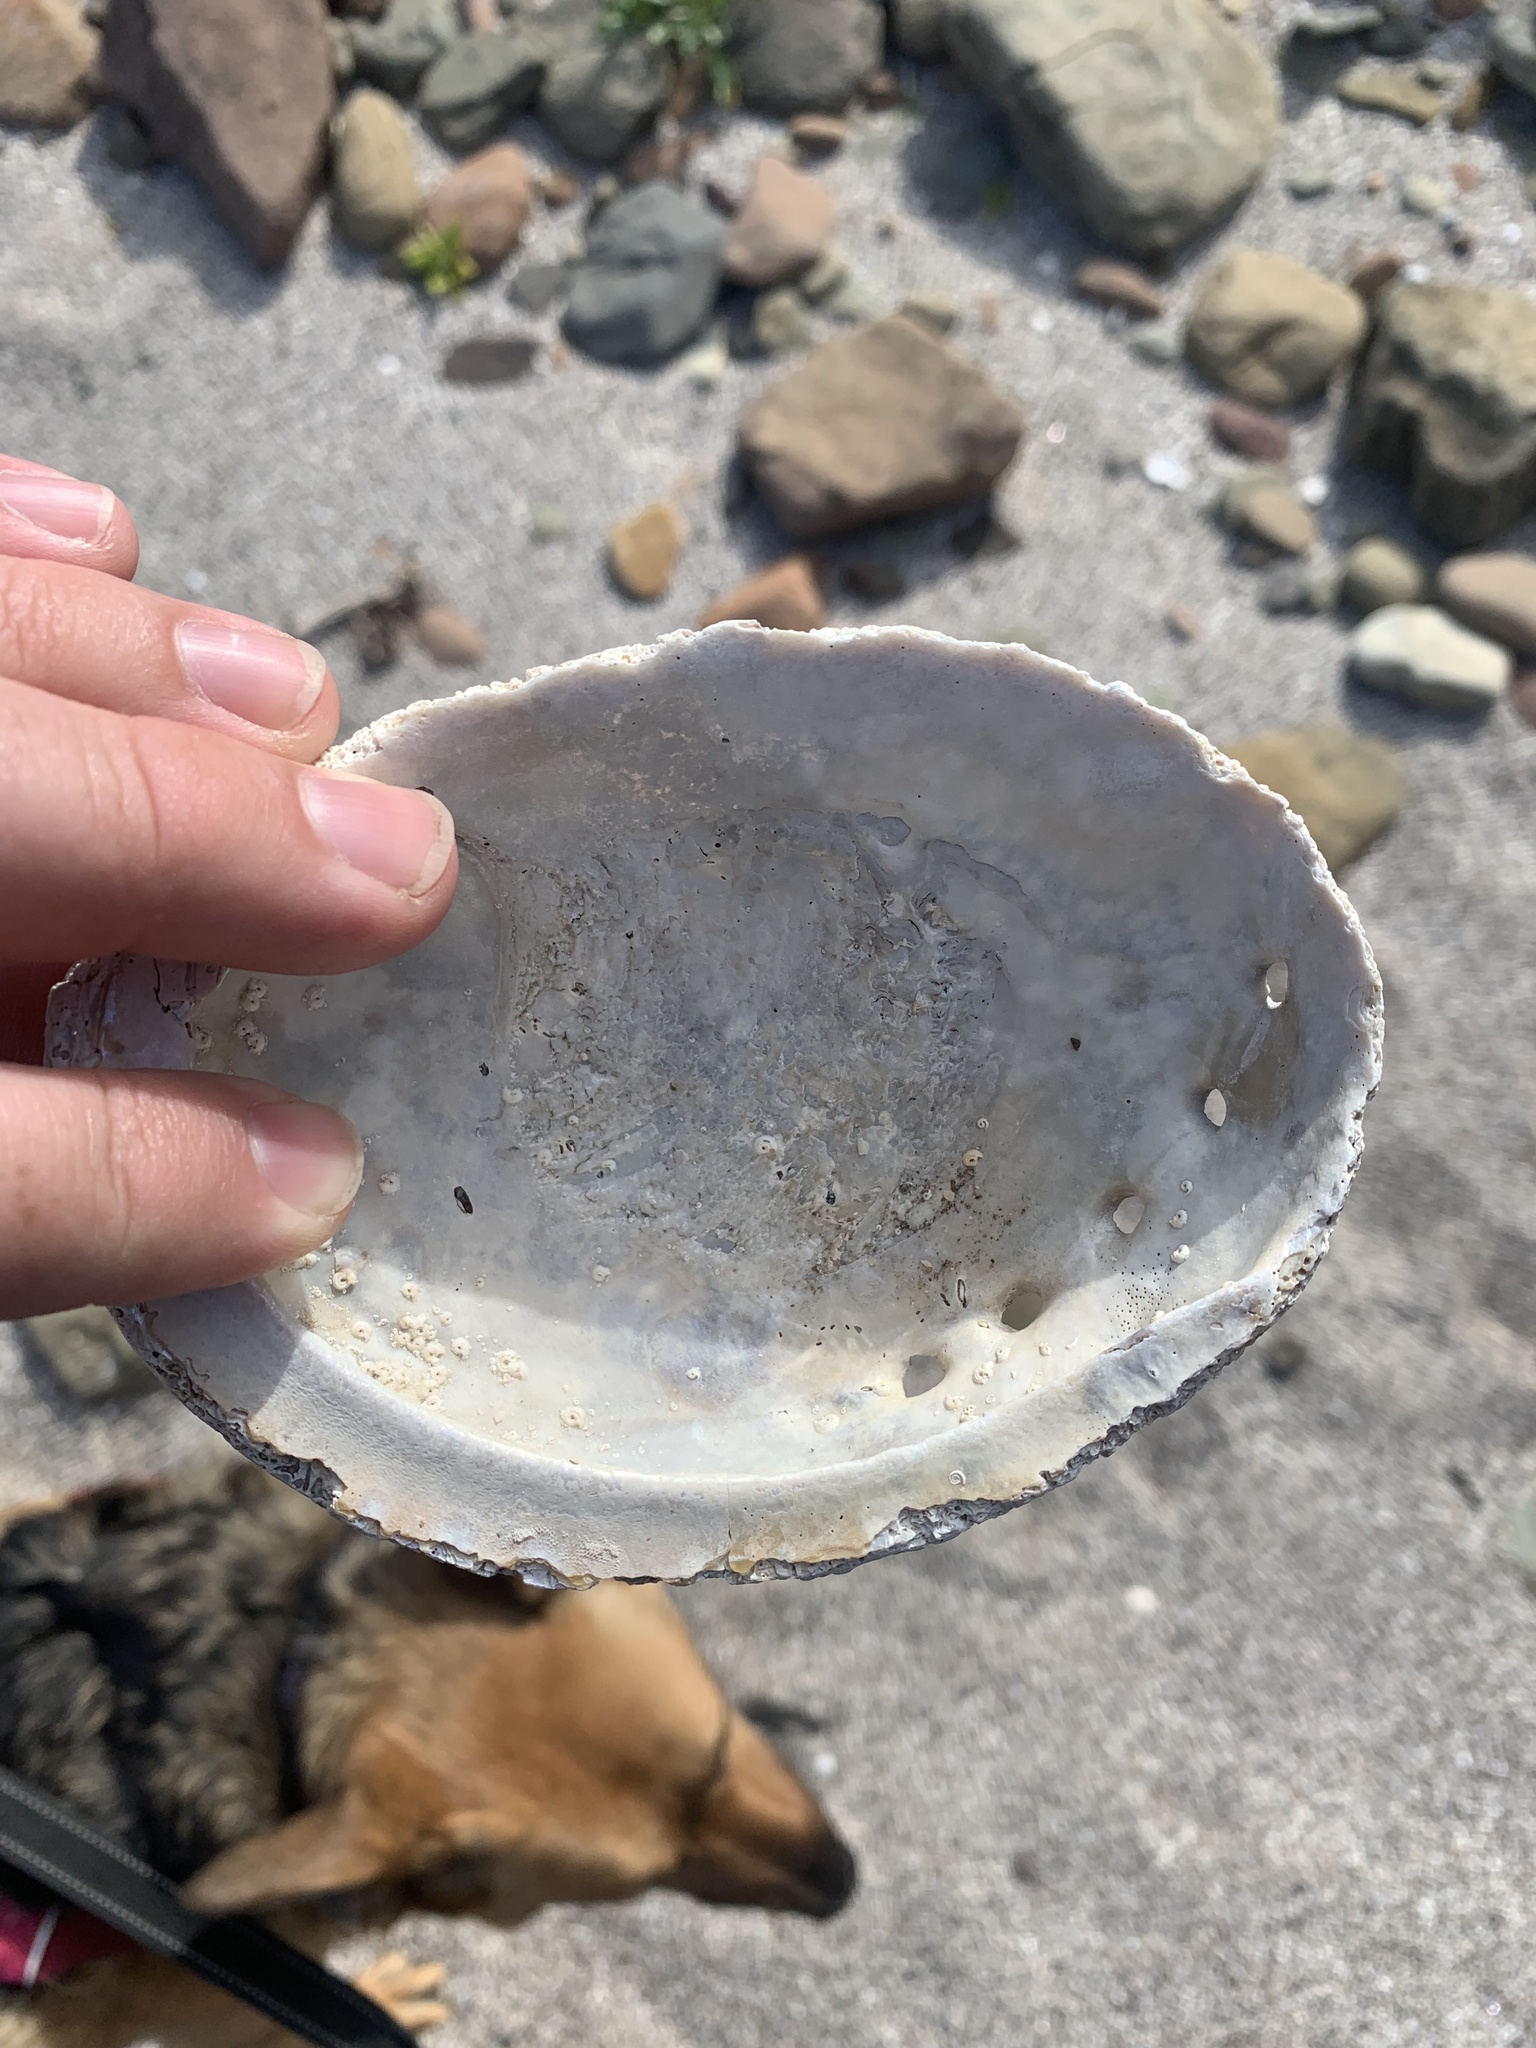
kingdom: Animalia
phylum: Mollusca
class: Gastropoda
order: Lepetellida
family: Haliotidae
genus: Haliotis
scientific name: Haliotis rubra
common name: Blacklip abalone
